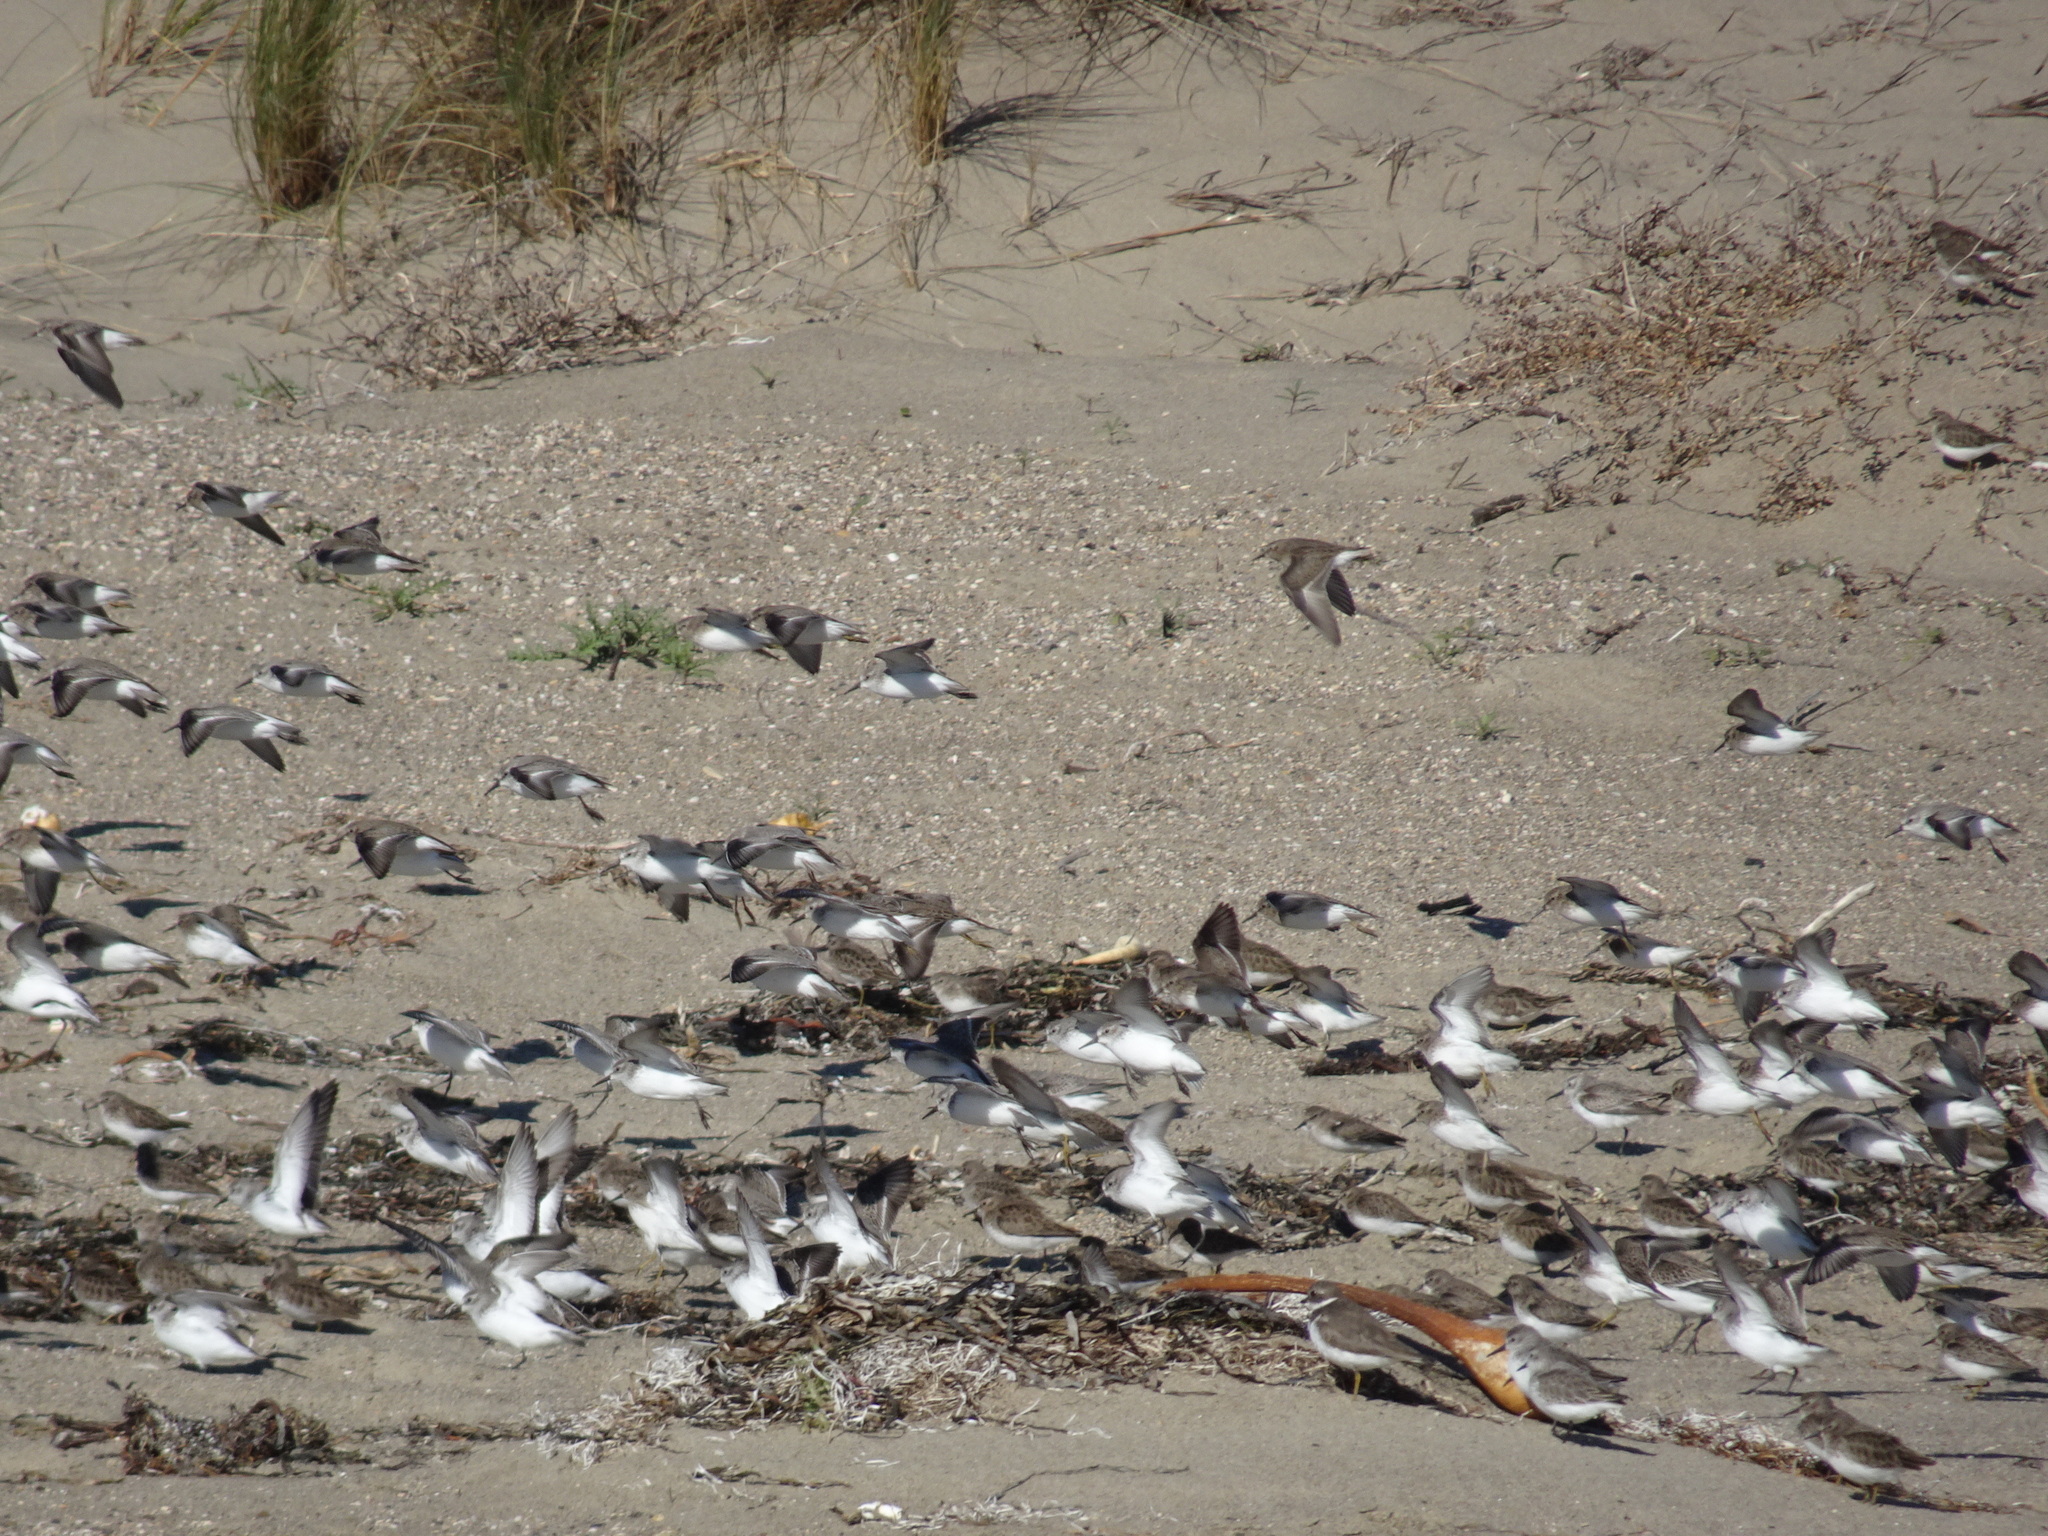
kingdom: Animalia
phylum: Chordata
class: Aves
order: Charadriiformes
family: Scolopacidae
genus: Calidris
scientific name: Calidris mauri
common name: Western sandpiper
